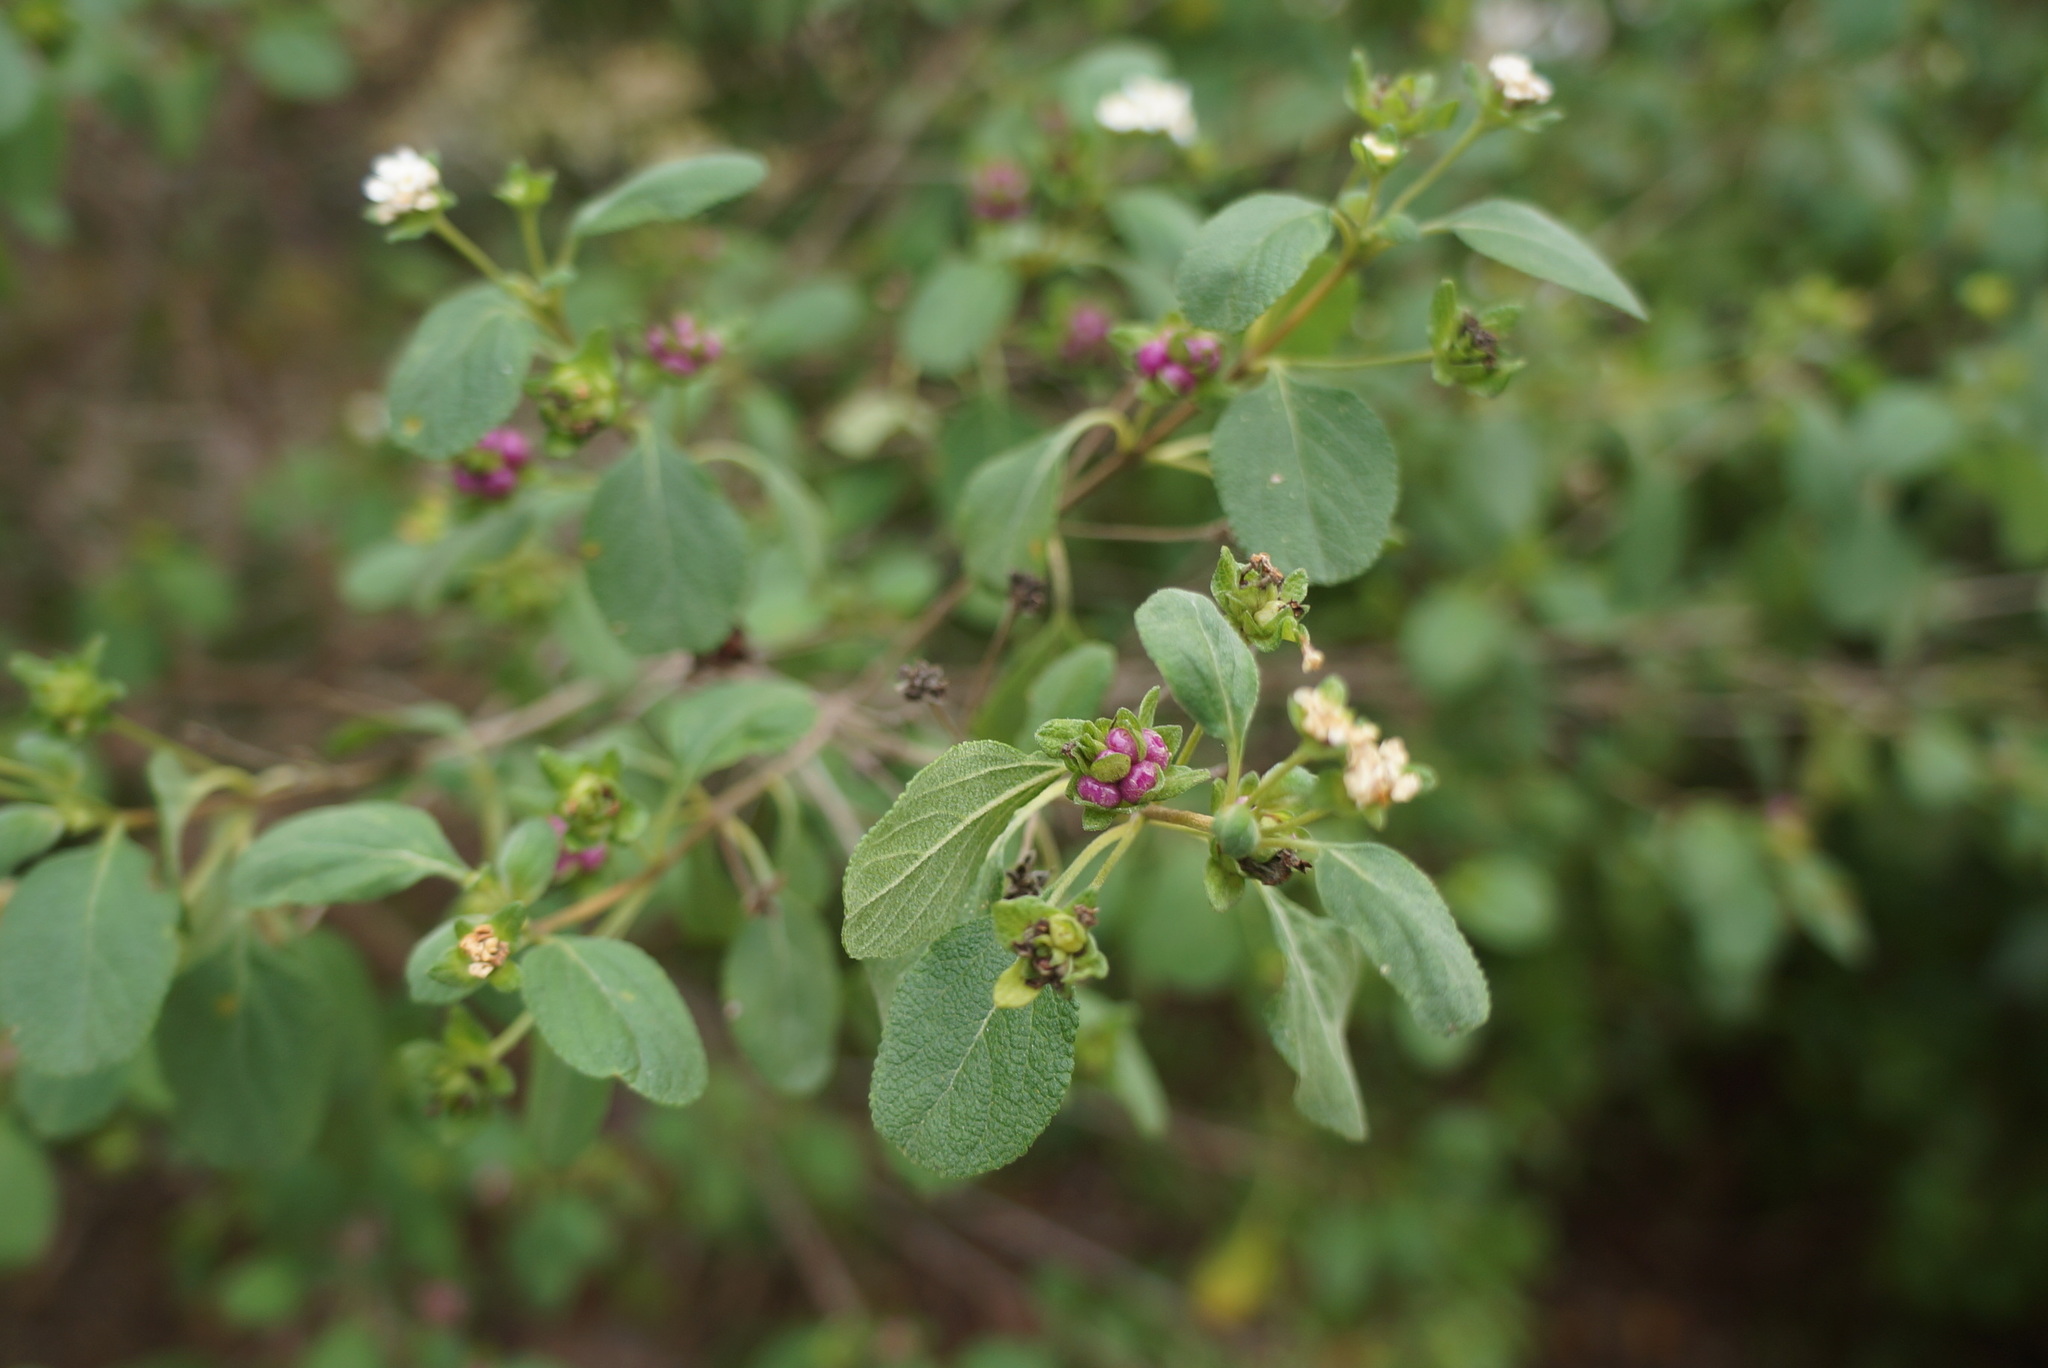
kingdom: Plantae
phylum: Tracheophyta
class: Magnoliopsida
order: Lamiales
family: Verbenaceae
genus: Lantana
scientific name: Lantana involucrata
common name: Black sage
